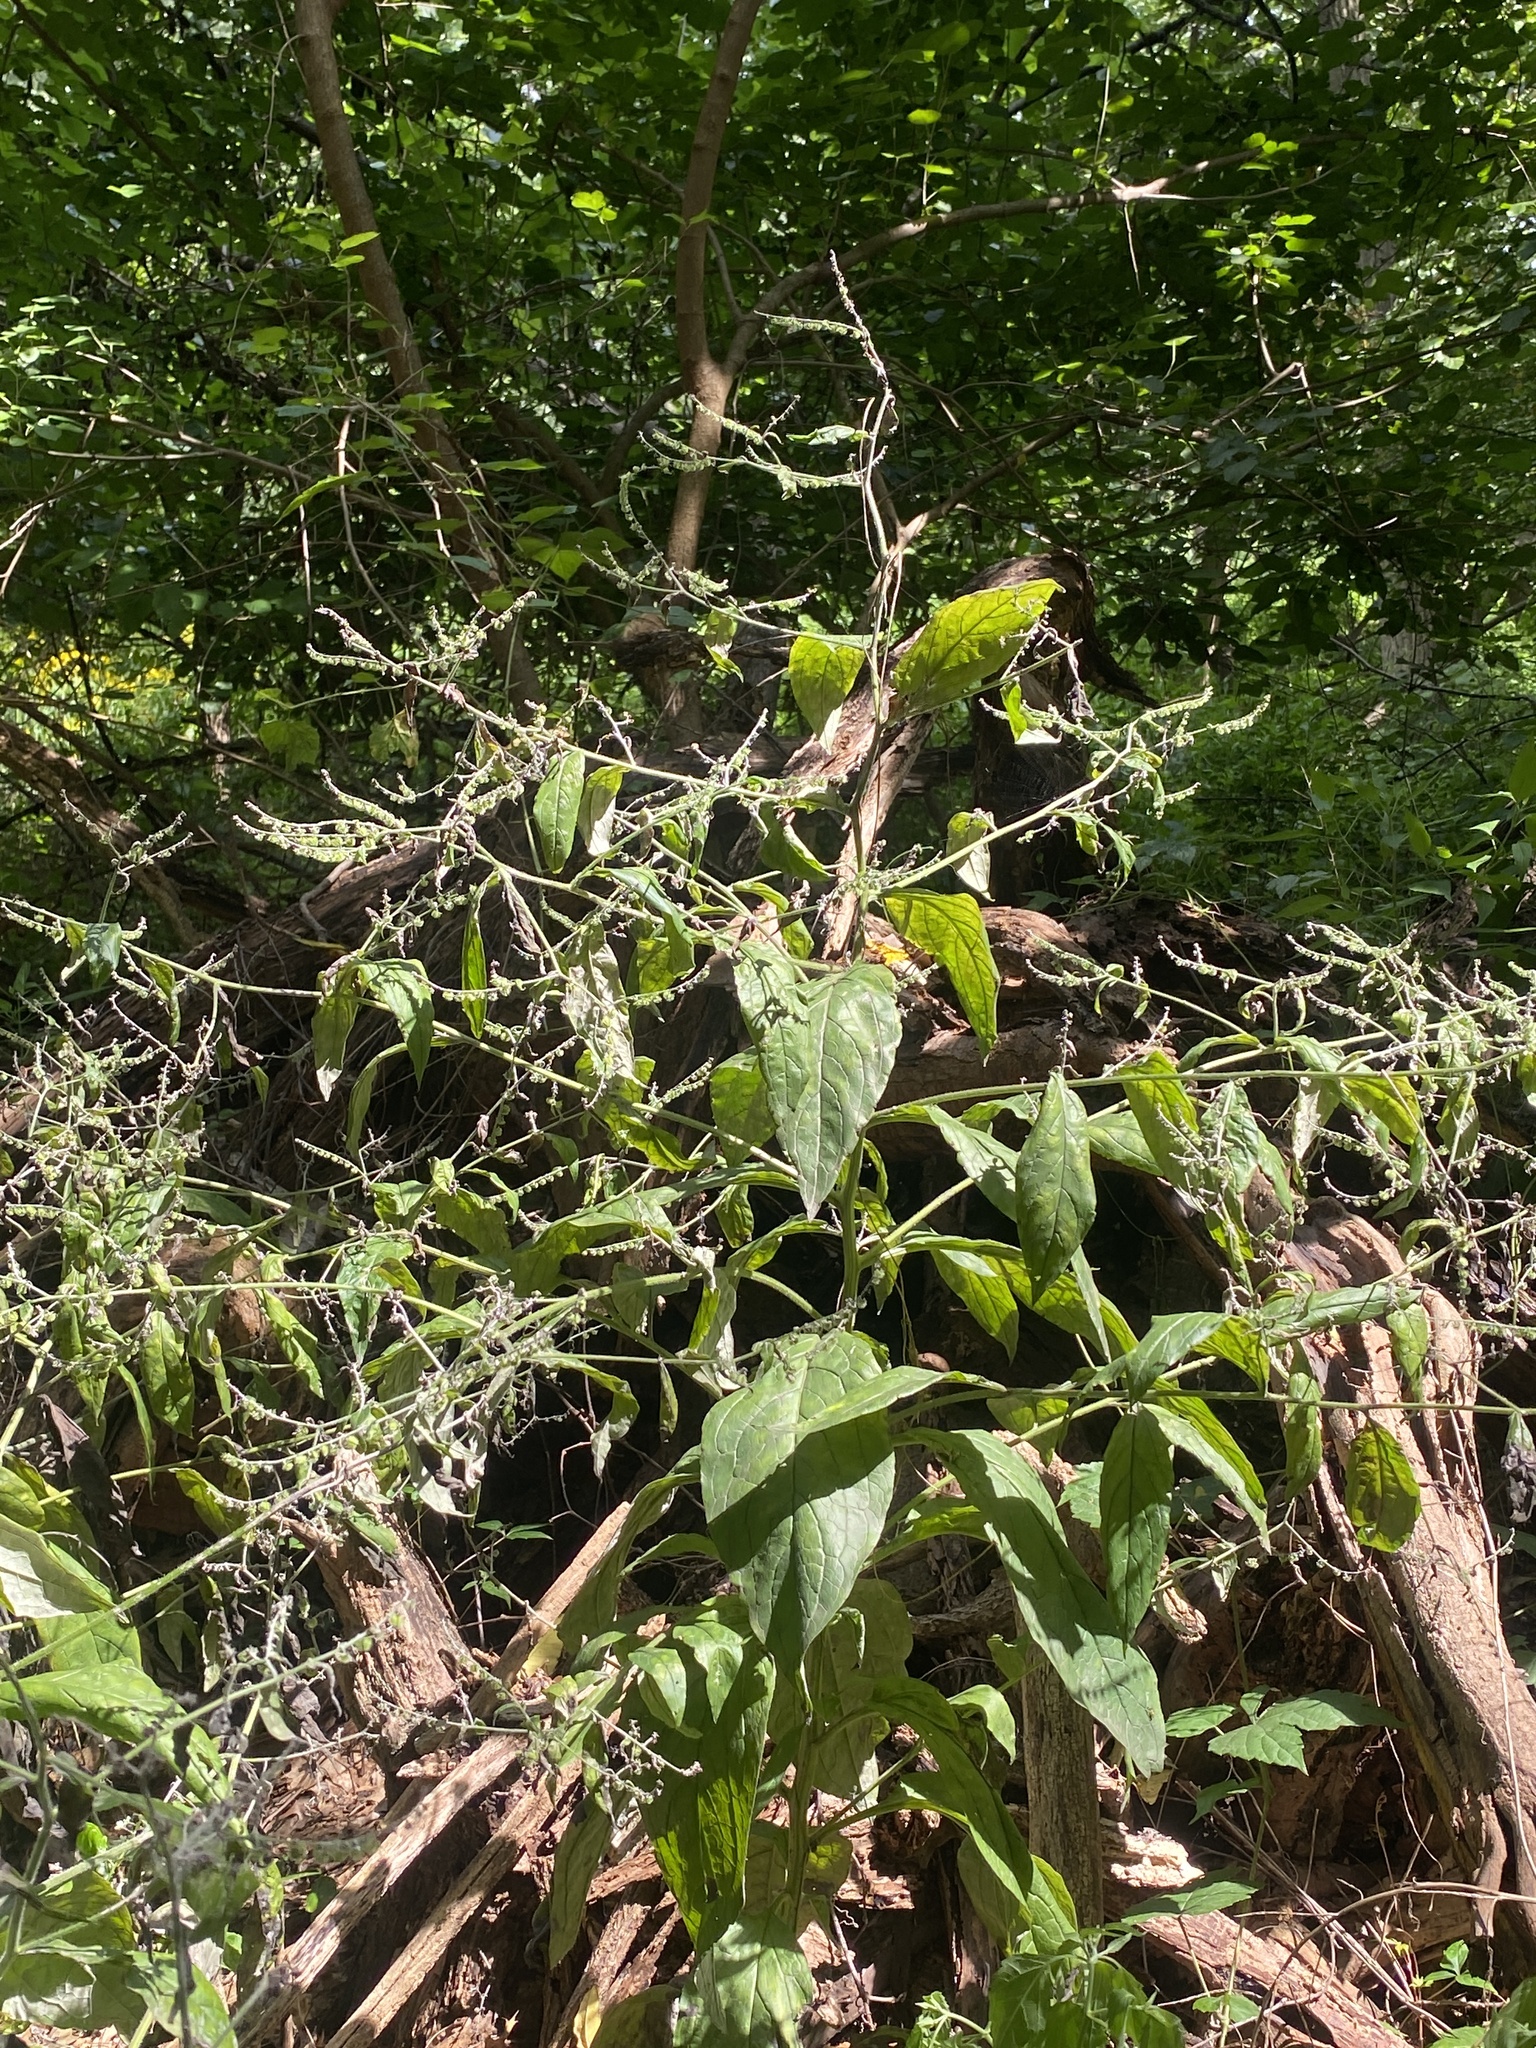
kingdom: Plantae
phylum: Tracheophyta
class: Magnoliopsida
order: Boraginales
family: Boraginaceae
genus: Hackelia
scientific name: Hackelia virginiana
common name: Beggar's-lice
